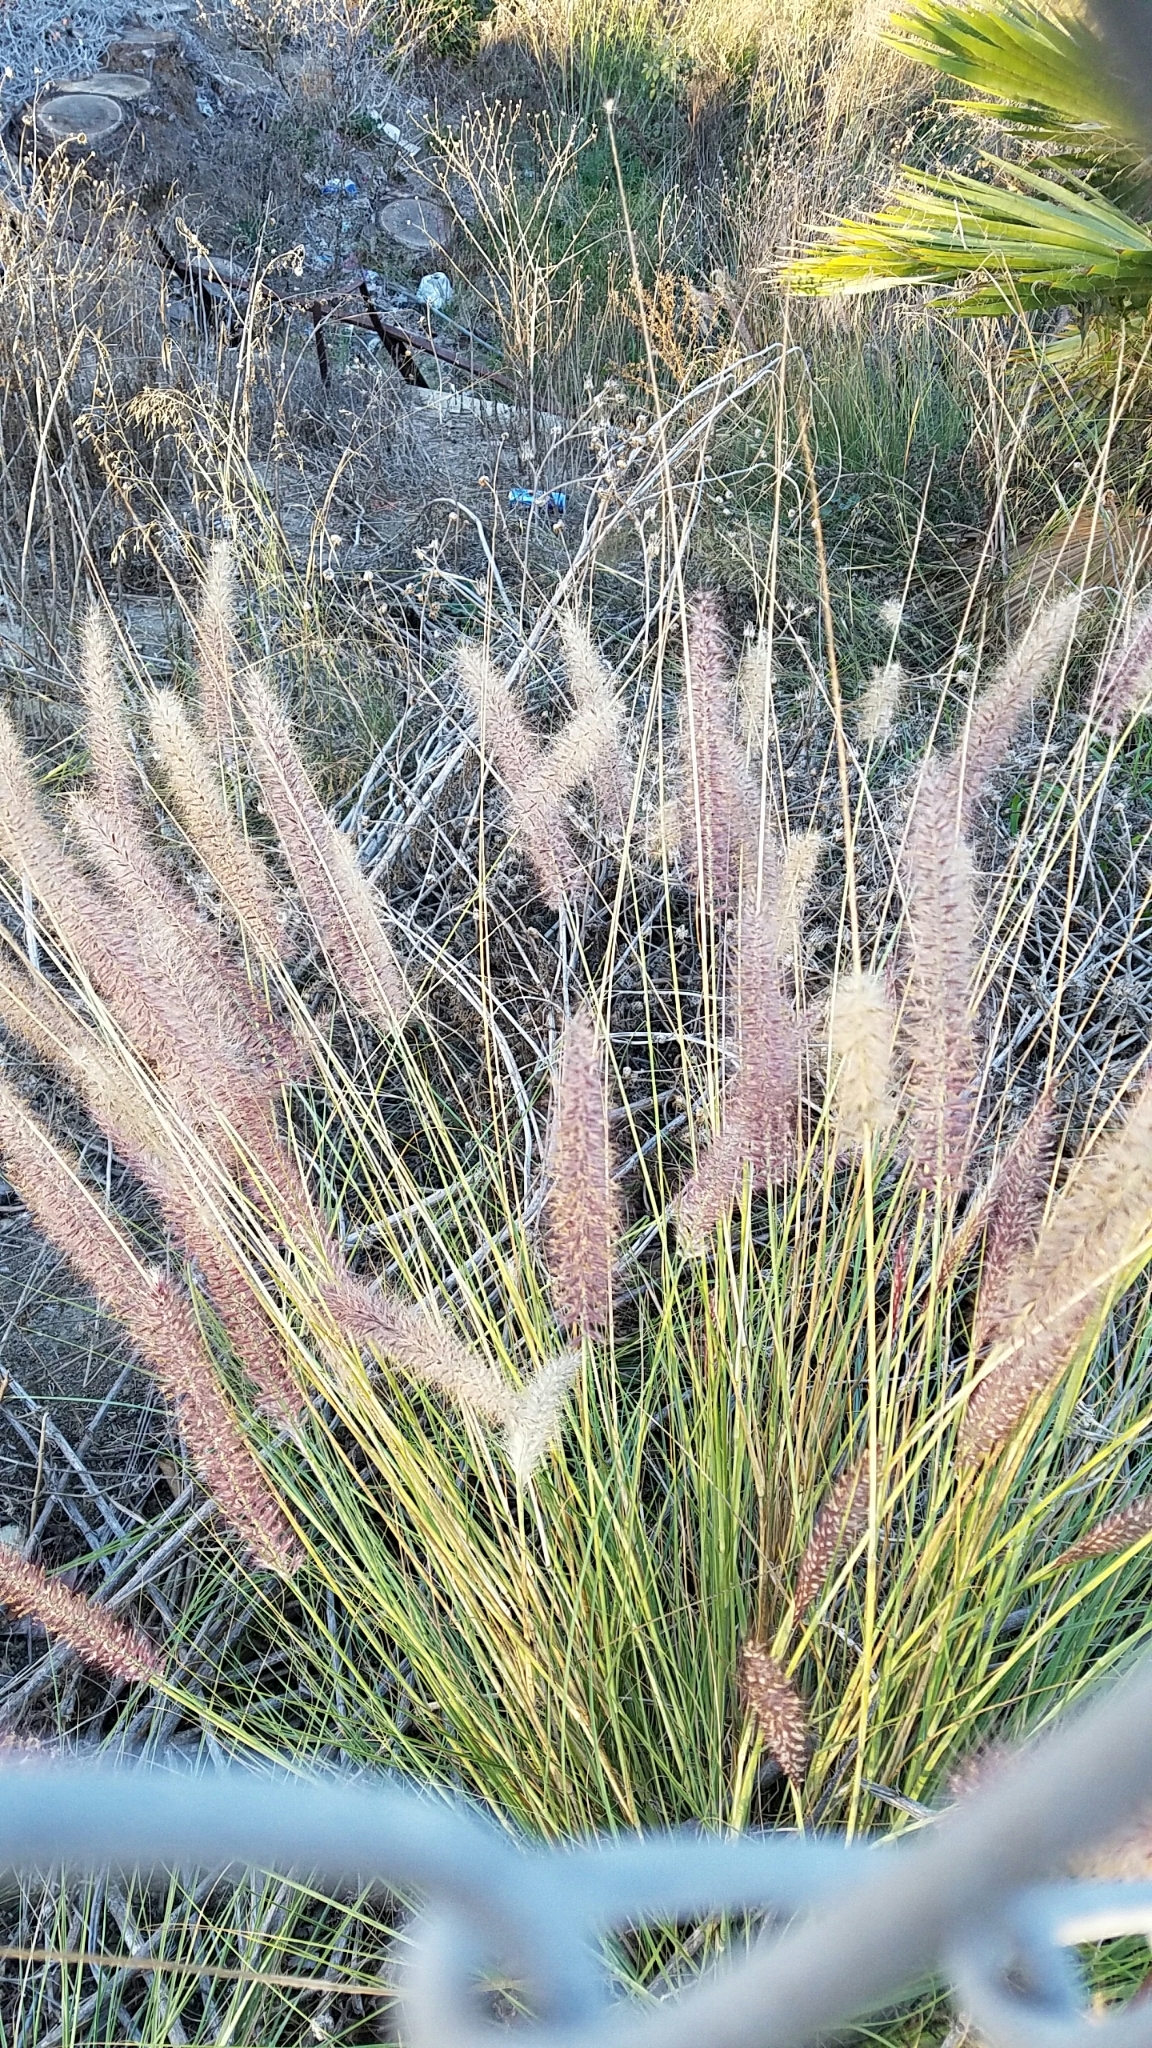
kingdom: Plantae
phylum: Tracheophyta
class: Liliopsida
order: Poales
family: Poaceae
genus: Cenchrus
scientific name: Cenchrus setaceus
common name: Crimson fountaingrass
